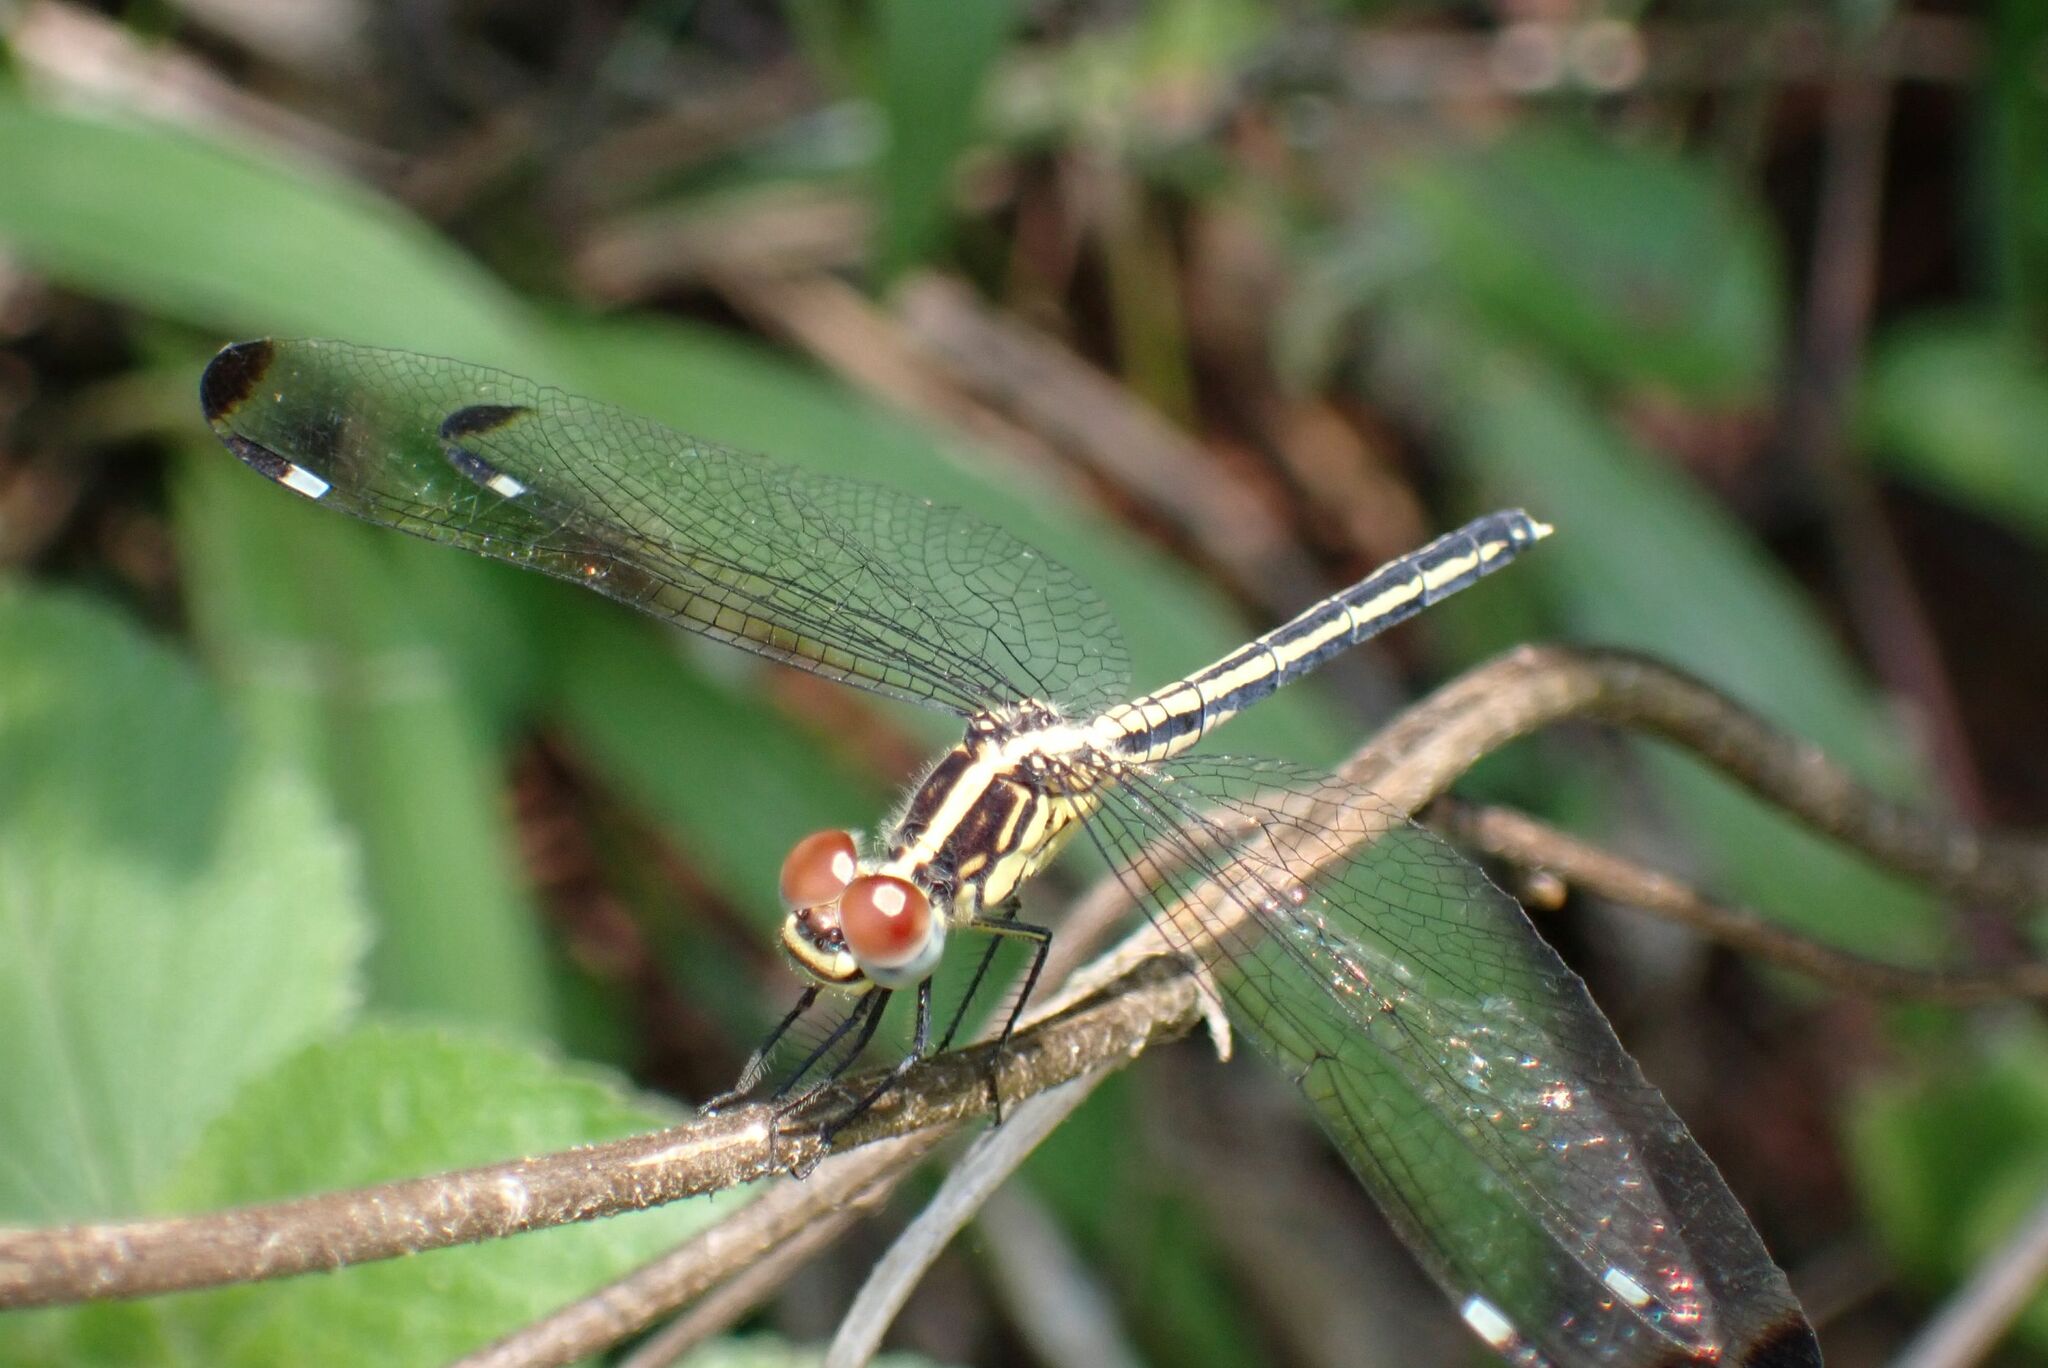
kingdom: Animalia
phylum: Arthropoda
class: Insecta
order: Odonata
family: Libellulidae
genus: Hemistigma
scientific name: Hemistigma albipunctum
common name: African pied-spot
